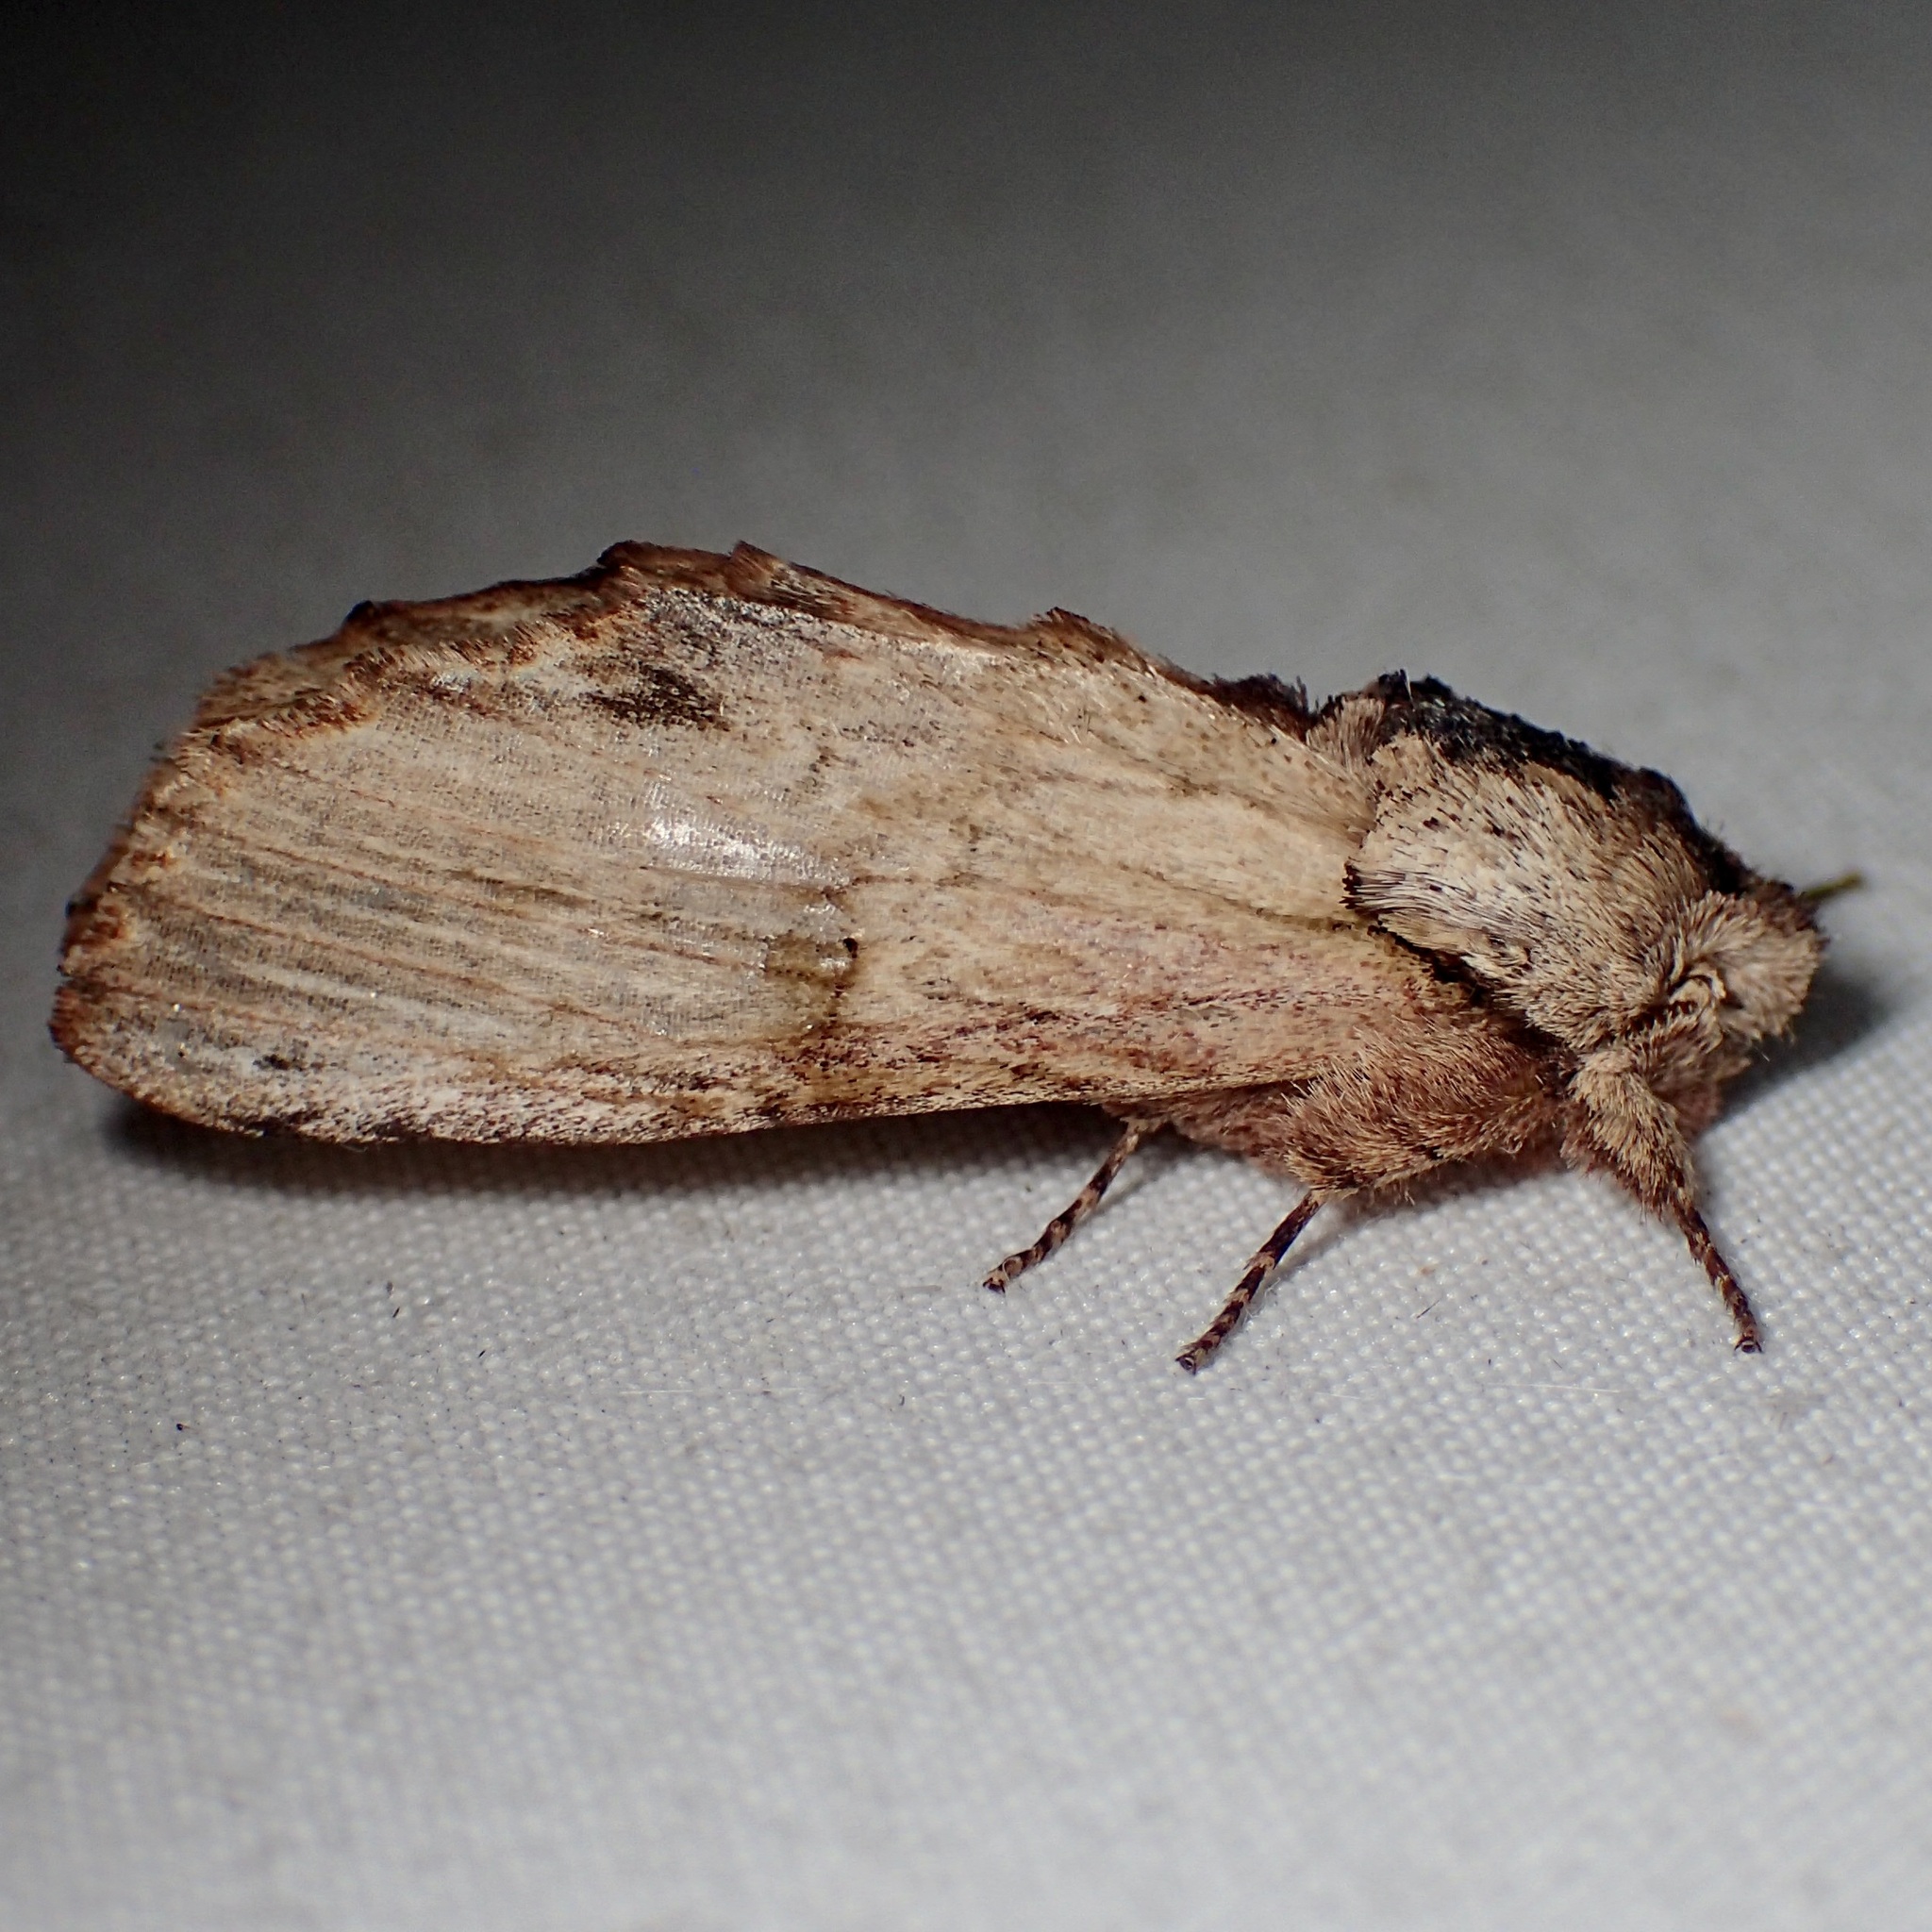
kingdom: Animalia
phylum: Arthropoda
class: Insecta
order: Lepidoptera
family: Notodontidae
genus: Oligocentria
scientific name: Oligocentria delicata
